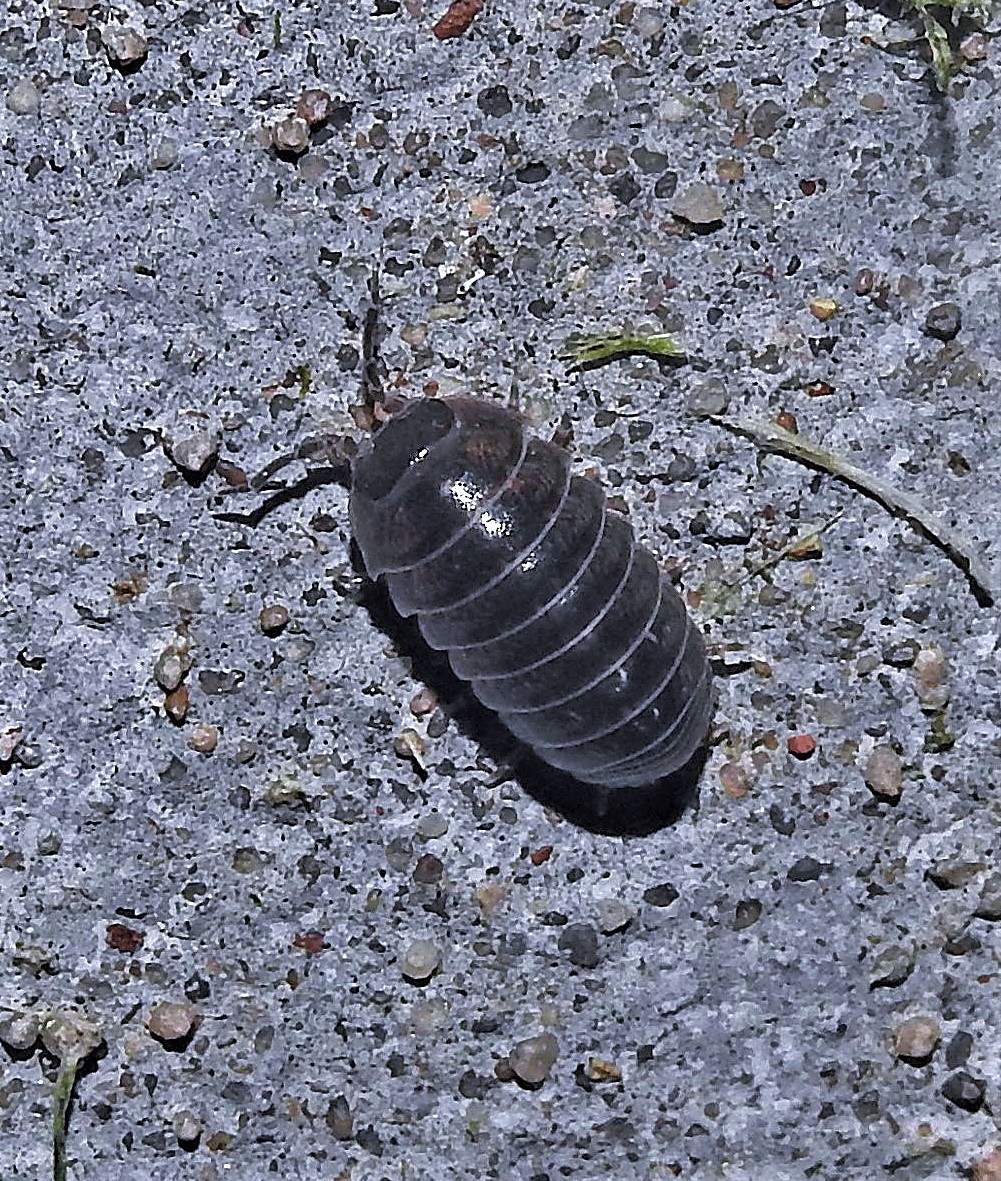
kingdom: Animalia
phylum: Arthropoda
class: Malacostraca
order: Isopoda
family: Armadillidiidae
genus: Armadillidium
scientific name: Armadillidium vulgare
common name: Common pill woodlouse
